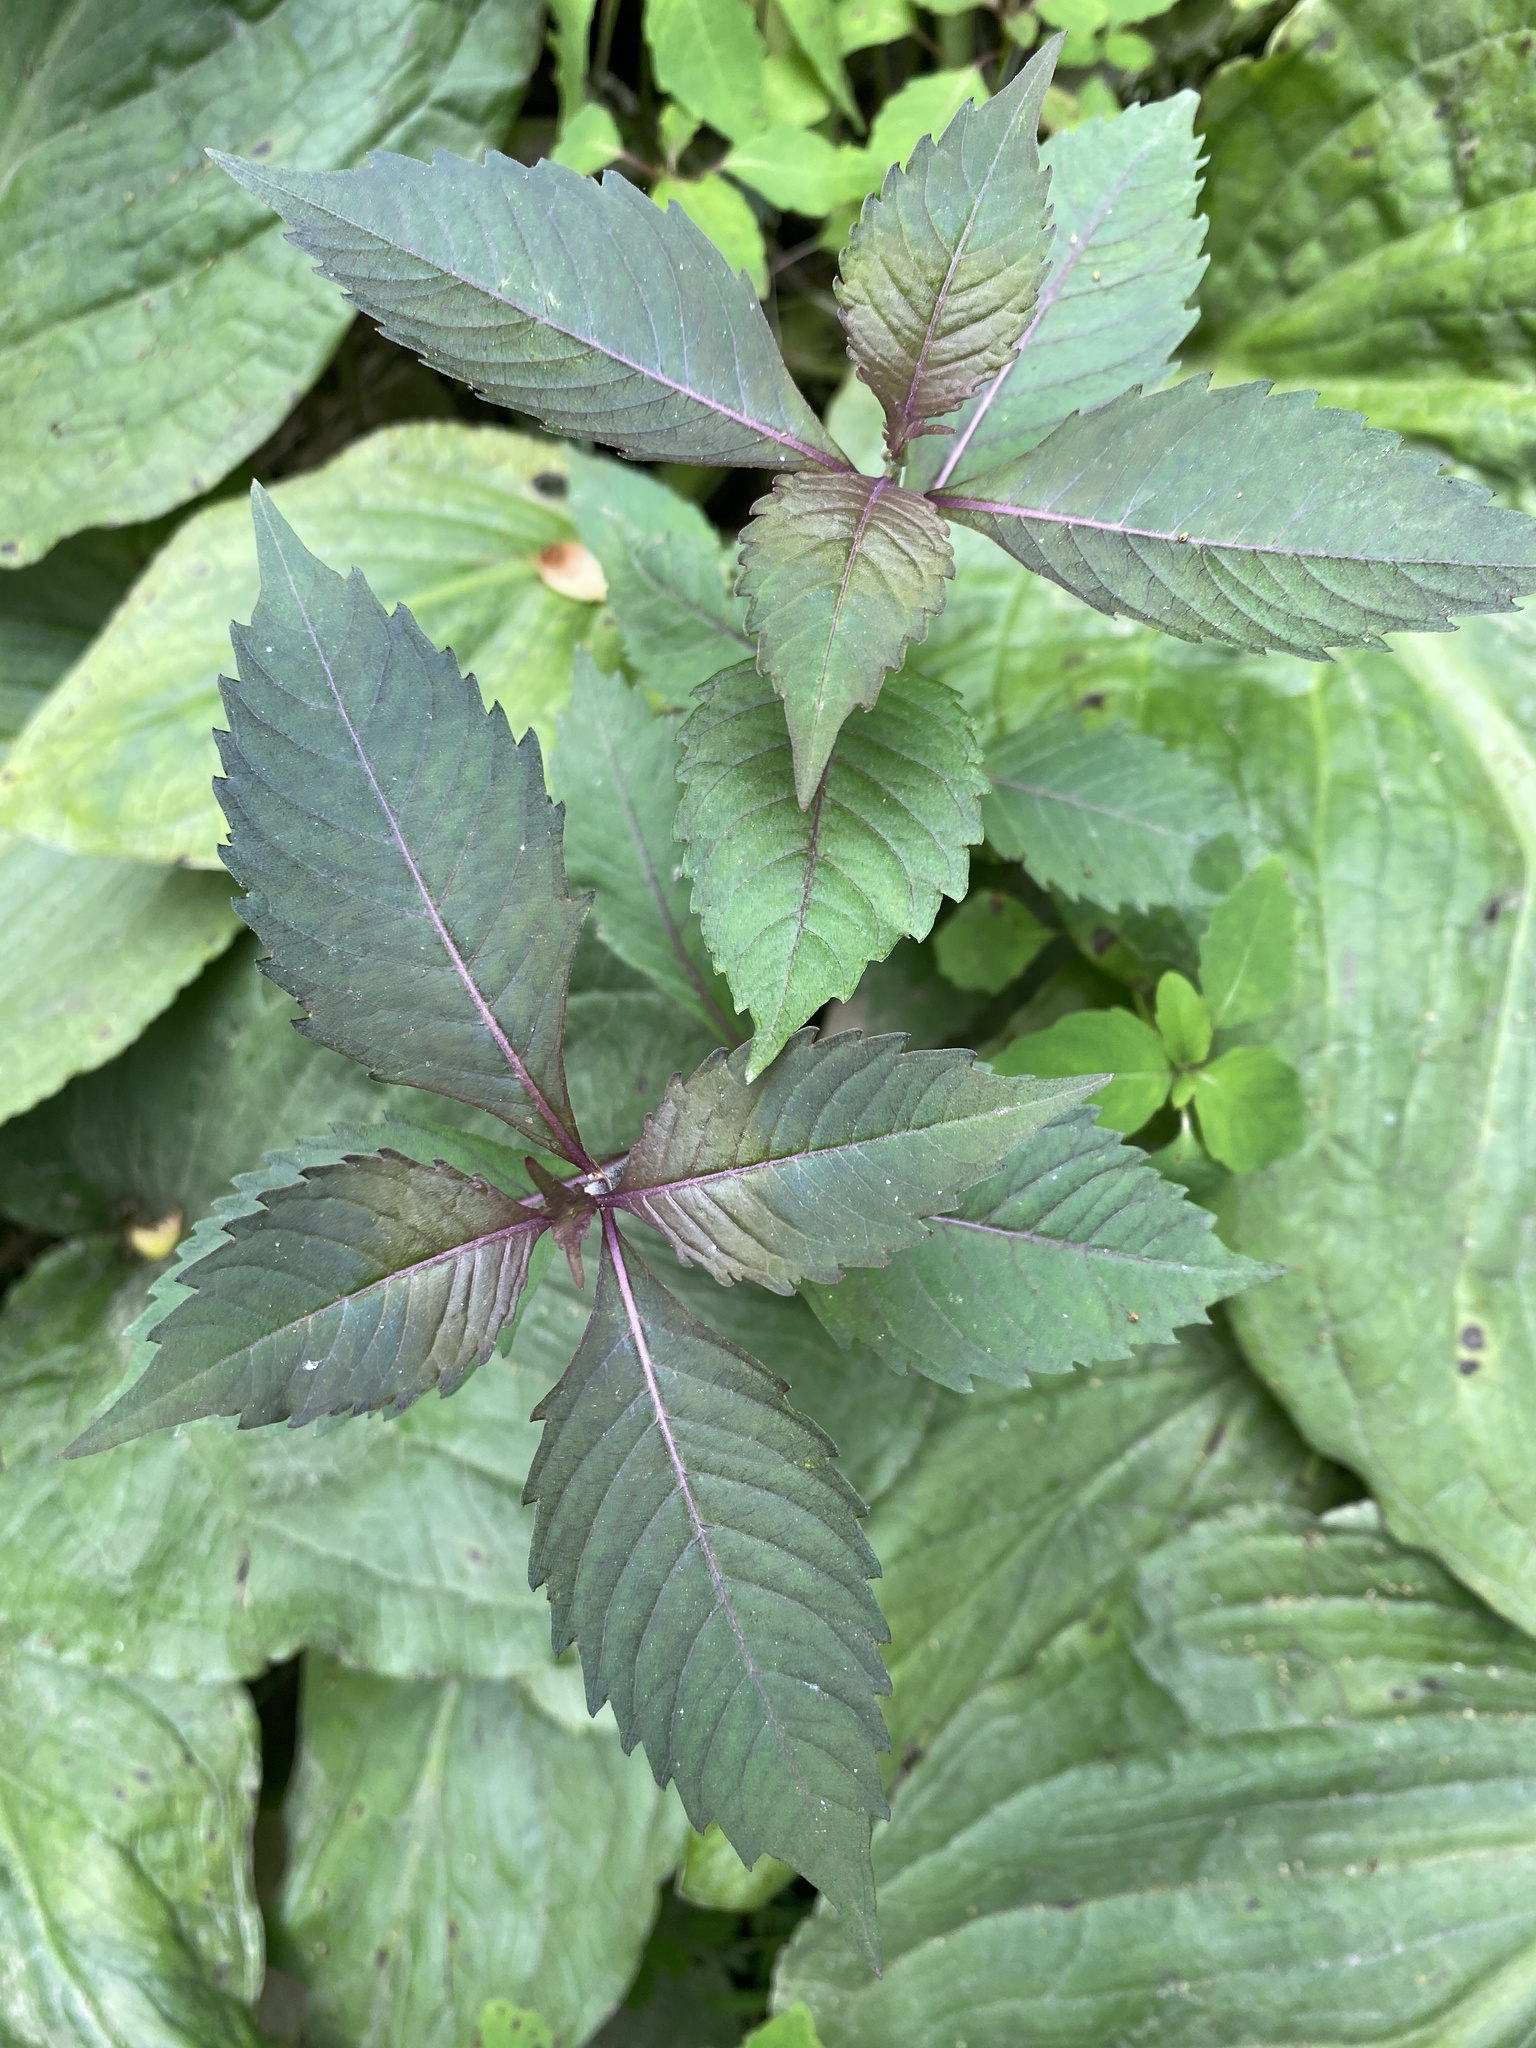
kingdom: Plantae
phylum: Tracheophyta
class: Magnoliopsida
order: Lamiales
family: Lamiaceae
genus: Lycopus
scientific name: Lycopus uniflorus
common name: Northern bugleweed
